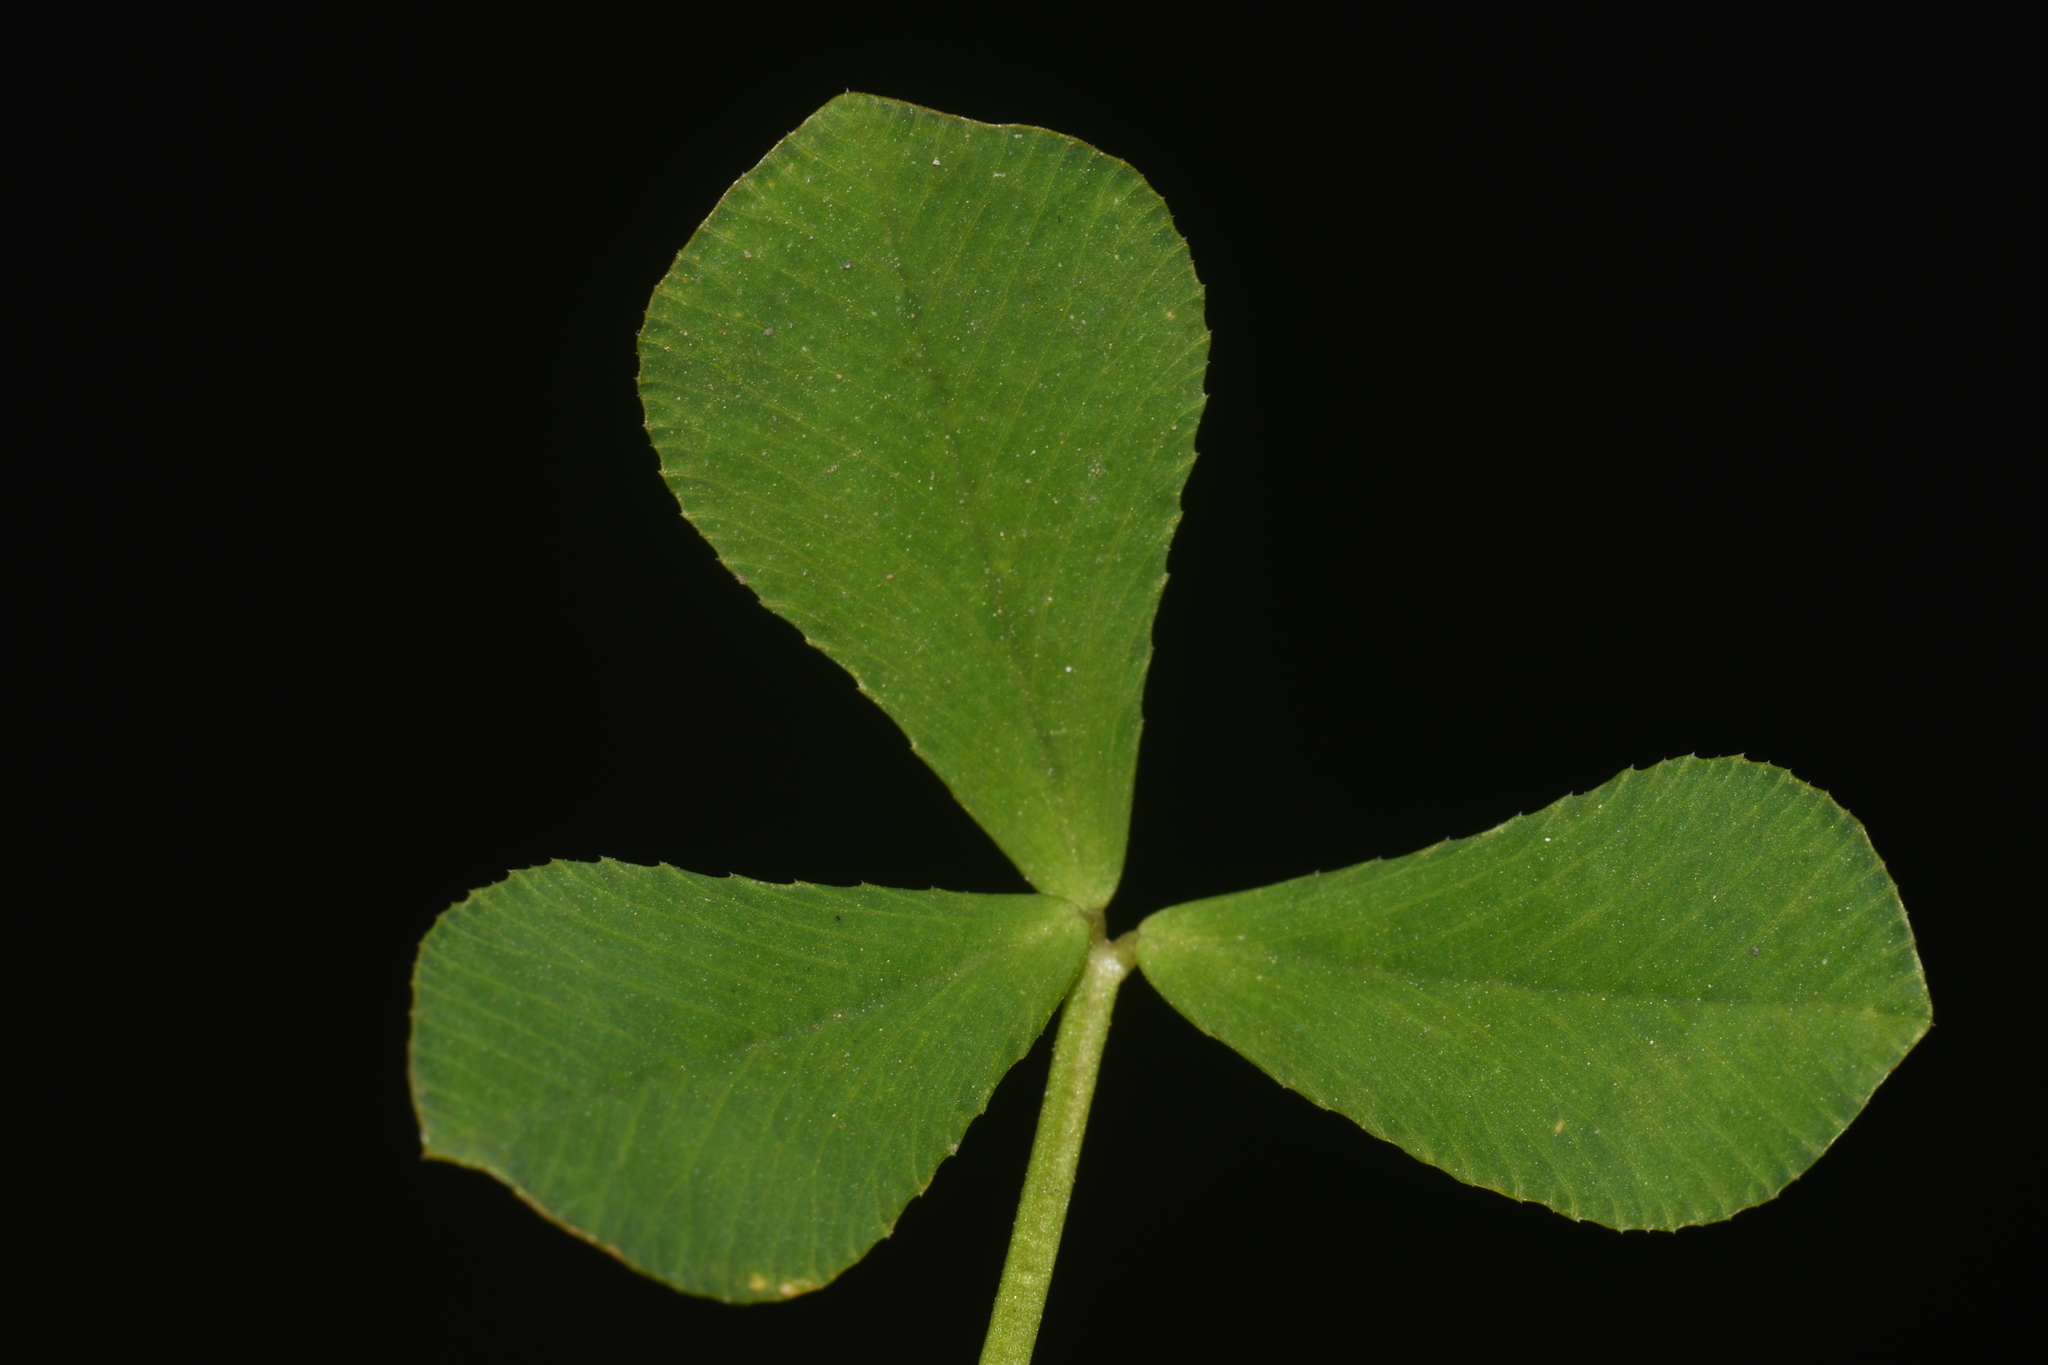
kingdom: Plantae
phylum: Tracheophyta
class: Magnoliopsida
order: Fabales
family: Fabaceae
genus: Trifolium
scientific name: Trifolium resupinatum
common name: Reversed clover
